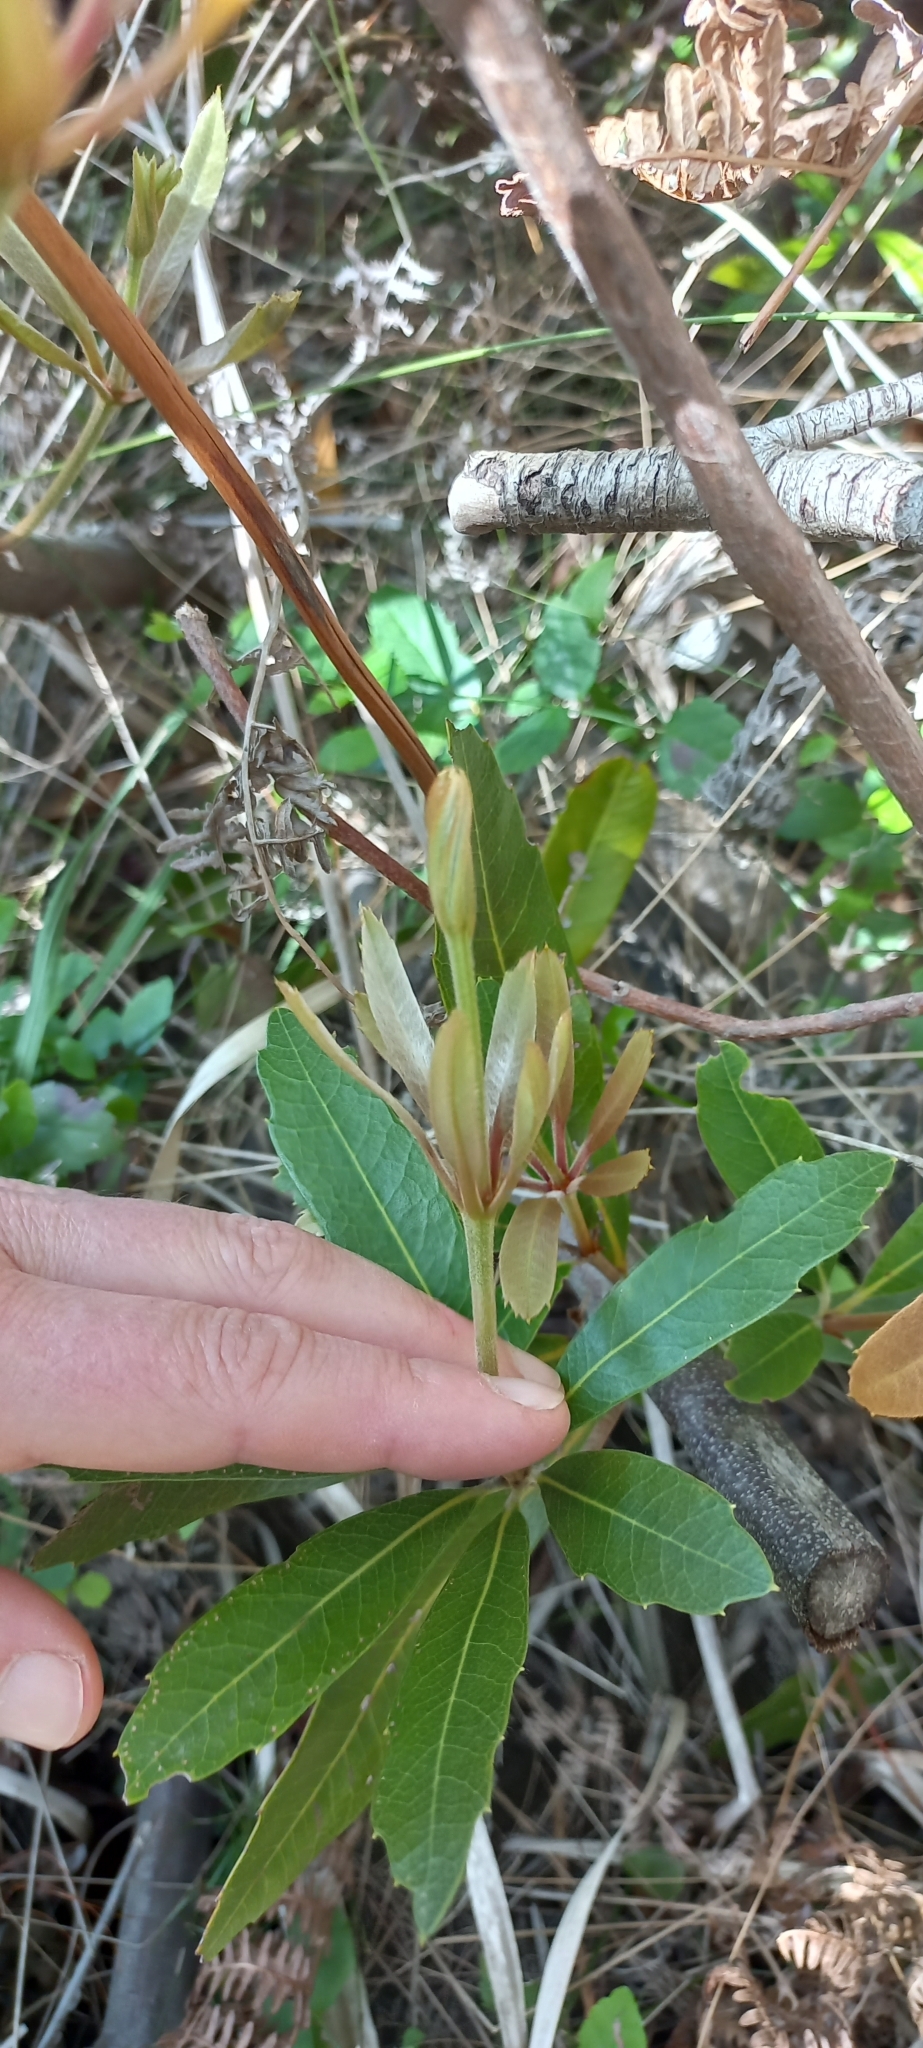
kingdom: Plantae
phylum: Tracheophyta
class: Magnoliopsida
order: Proteales
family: Proteaceae
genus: Brabejum
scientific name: Brabejum stellatifolium
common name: Wild almond
